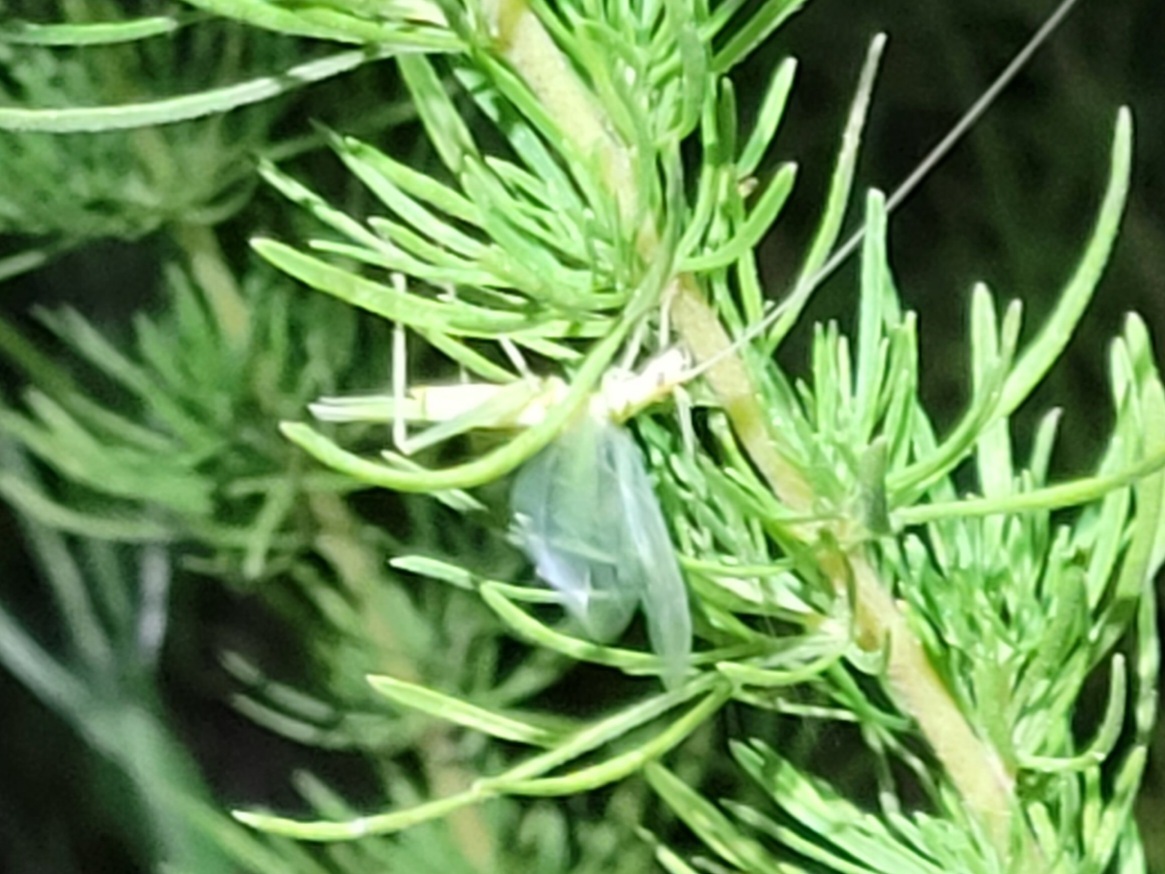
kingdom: Animalia
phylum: Arthropoda
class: Insecta
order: Orthoptera
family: Gryllidae
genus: Oecanthus
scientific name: Oecanthus quadripunctatus
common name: Four-spotted tree cricket
